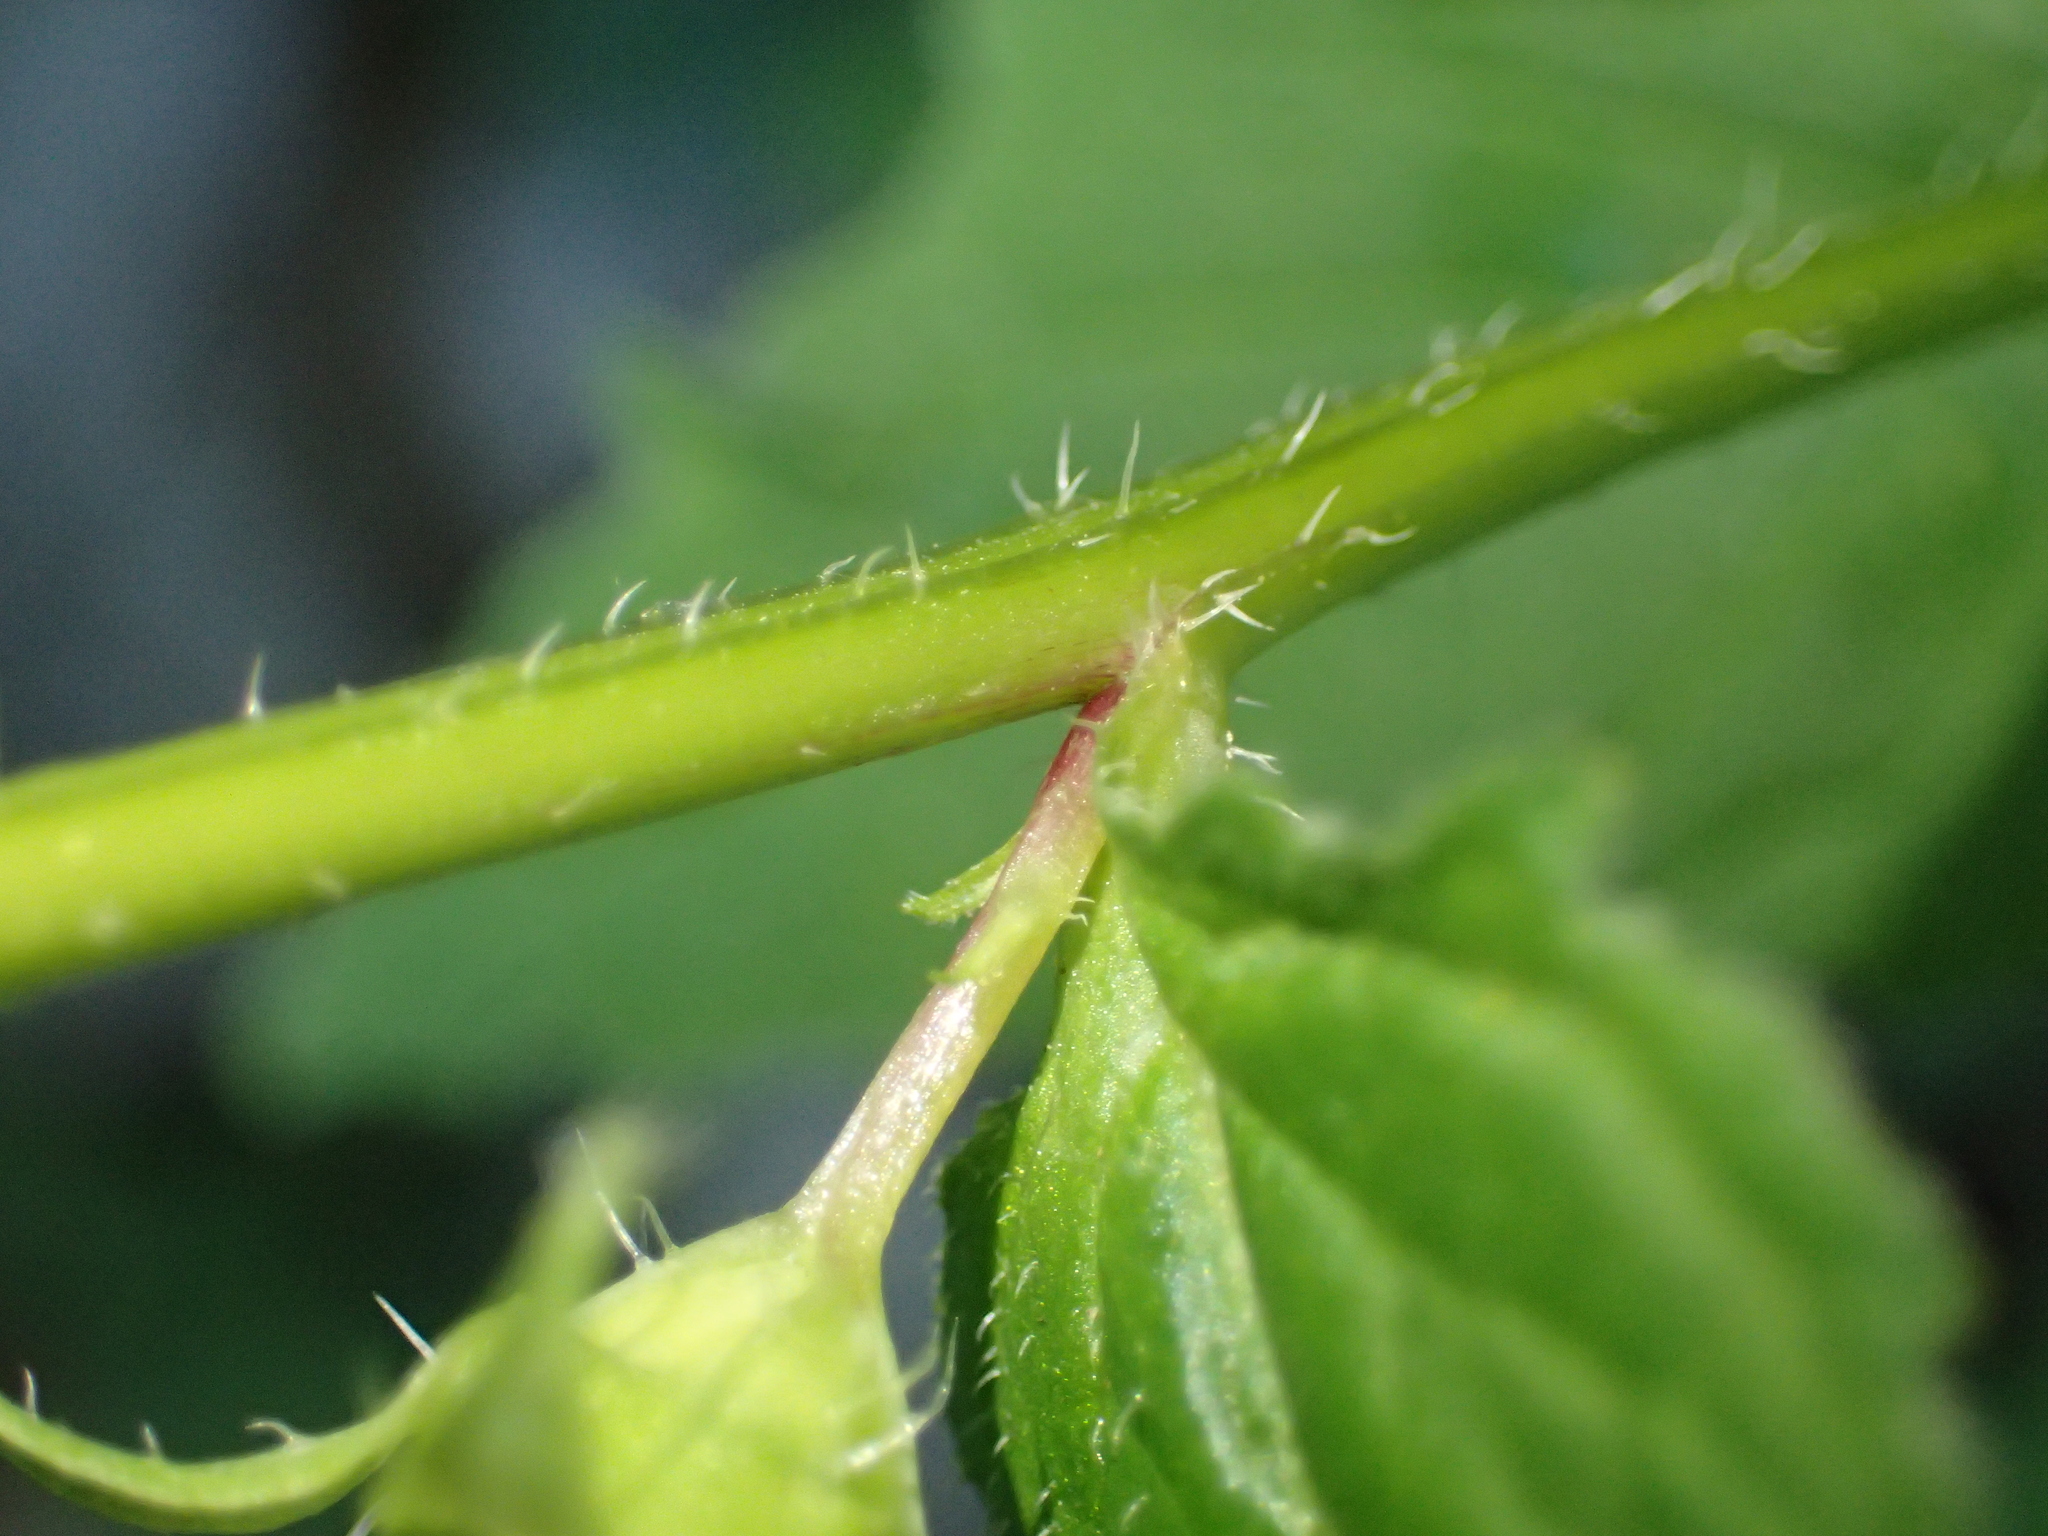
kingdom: Plantae
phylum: Tracheophyta
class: Magnoliopsida
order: Asterales
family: Campanulaceae
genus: Campanula
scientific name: Campanula trachelium
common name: Nettle-leaved bellflower
